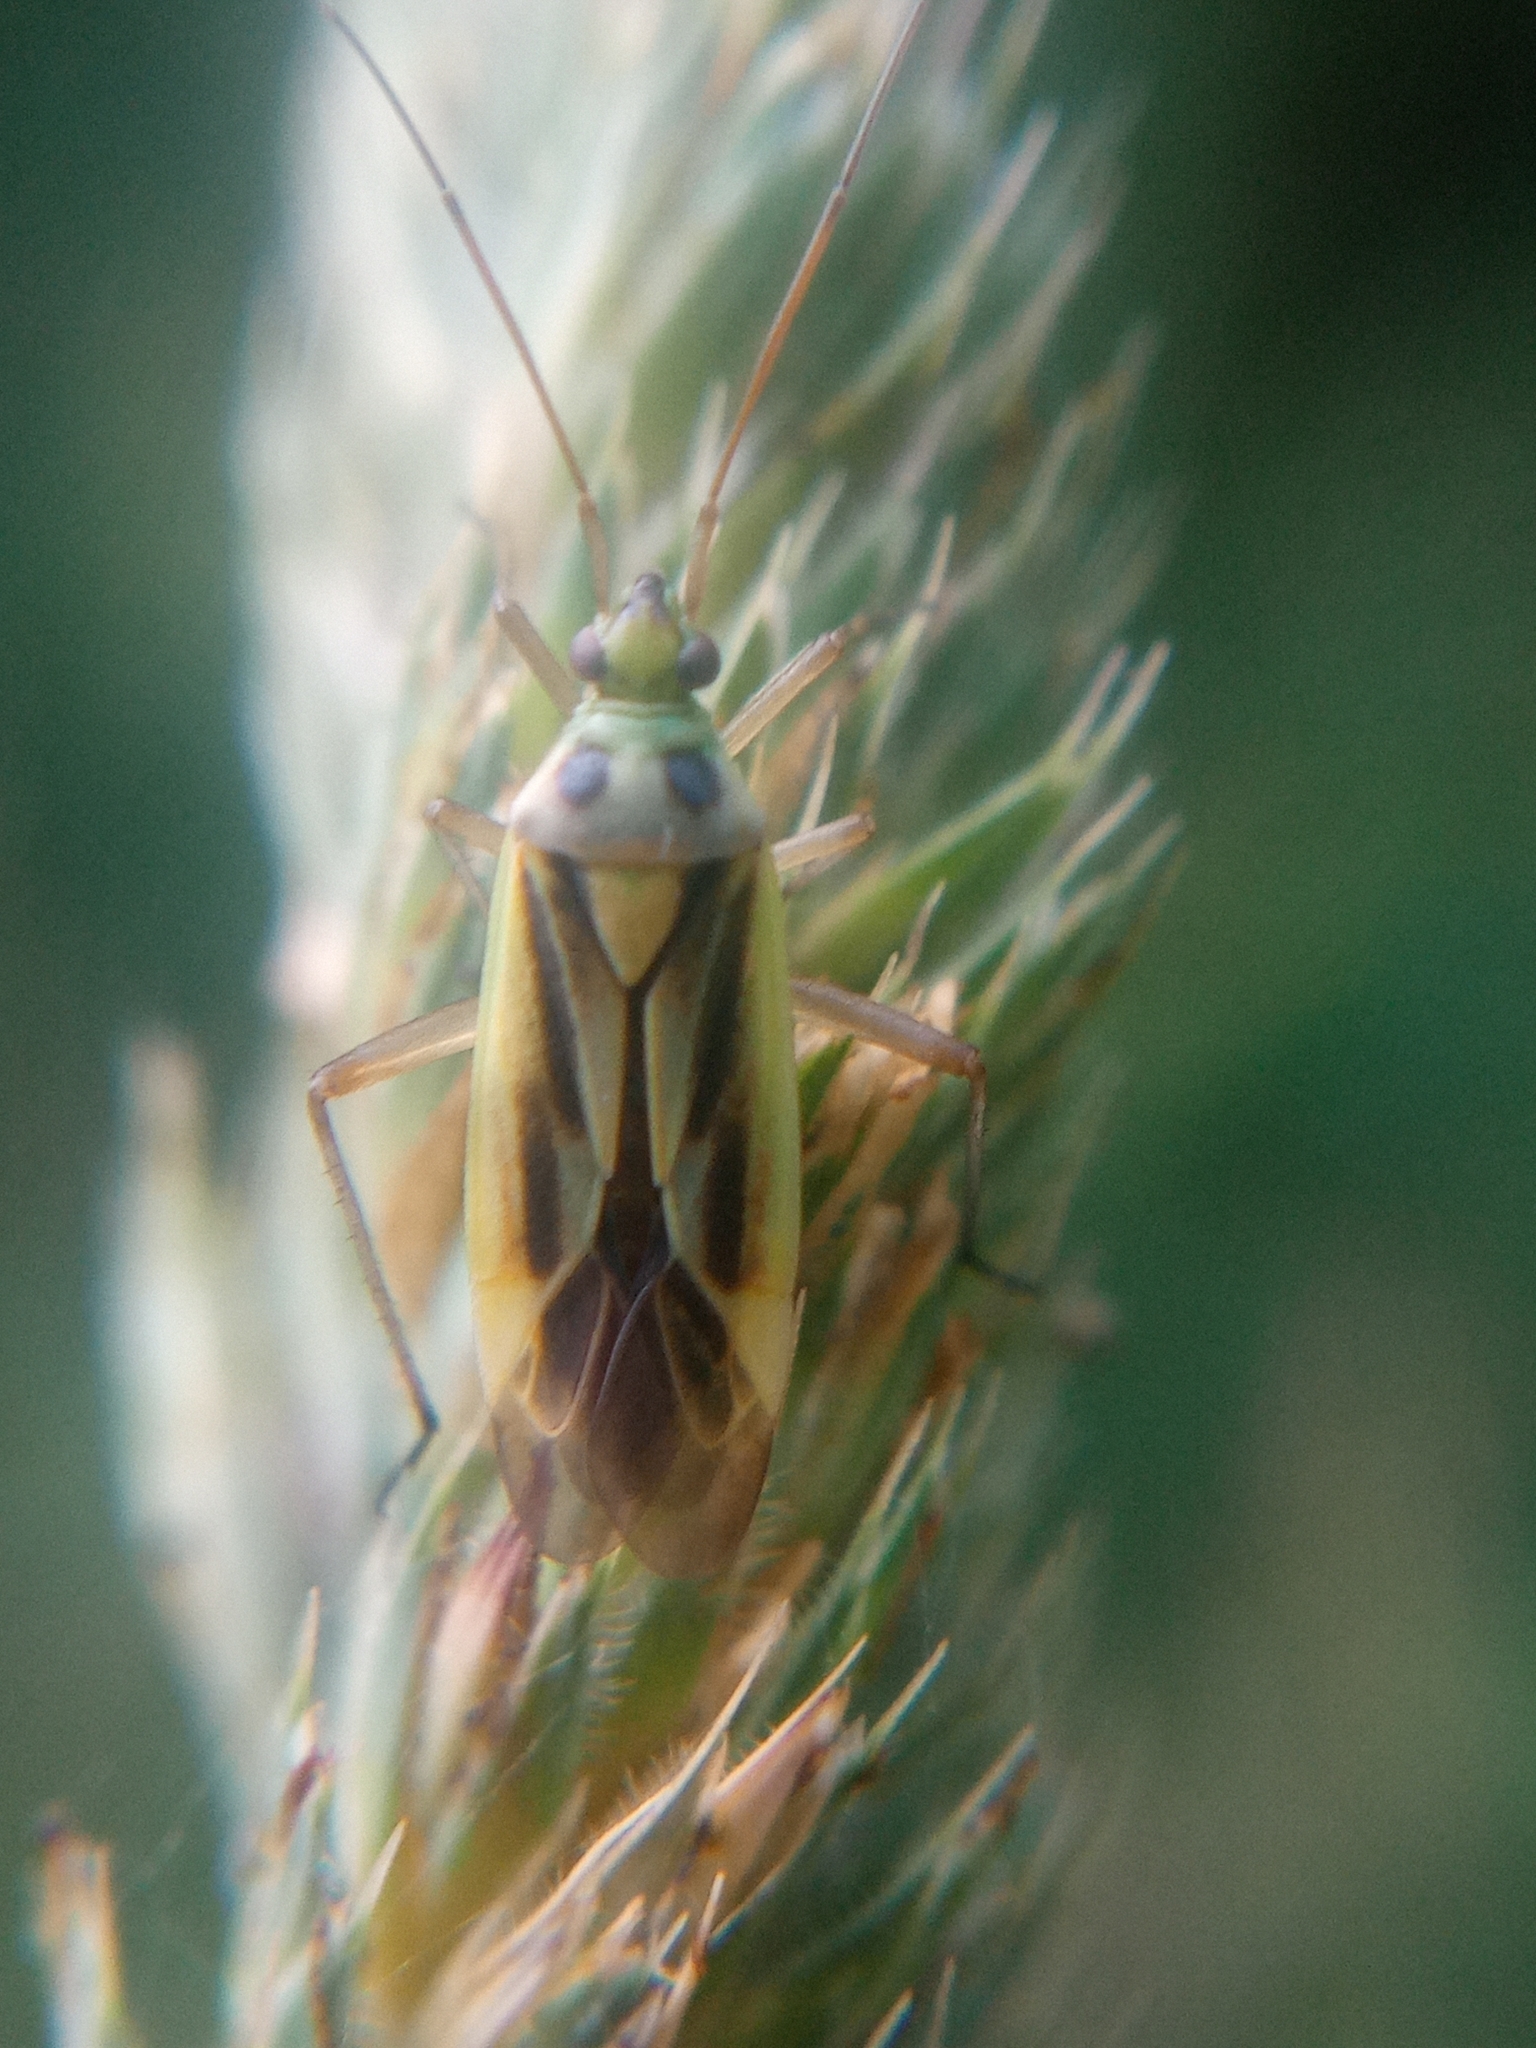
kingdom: Animalia
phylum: Arthropoda
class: Insecta
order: Hemiptera
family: Miridae
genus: Stenotus
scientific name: Stenotus binotatus
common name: Plant bug
